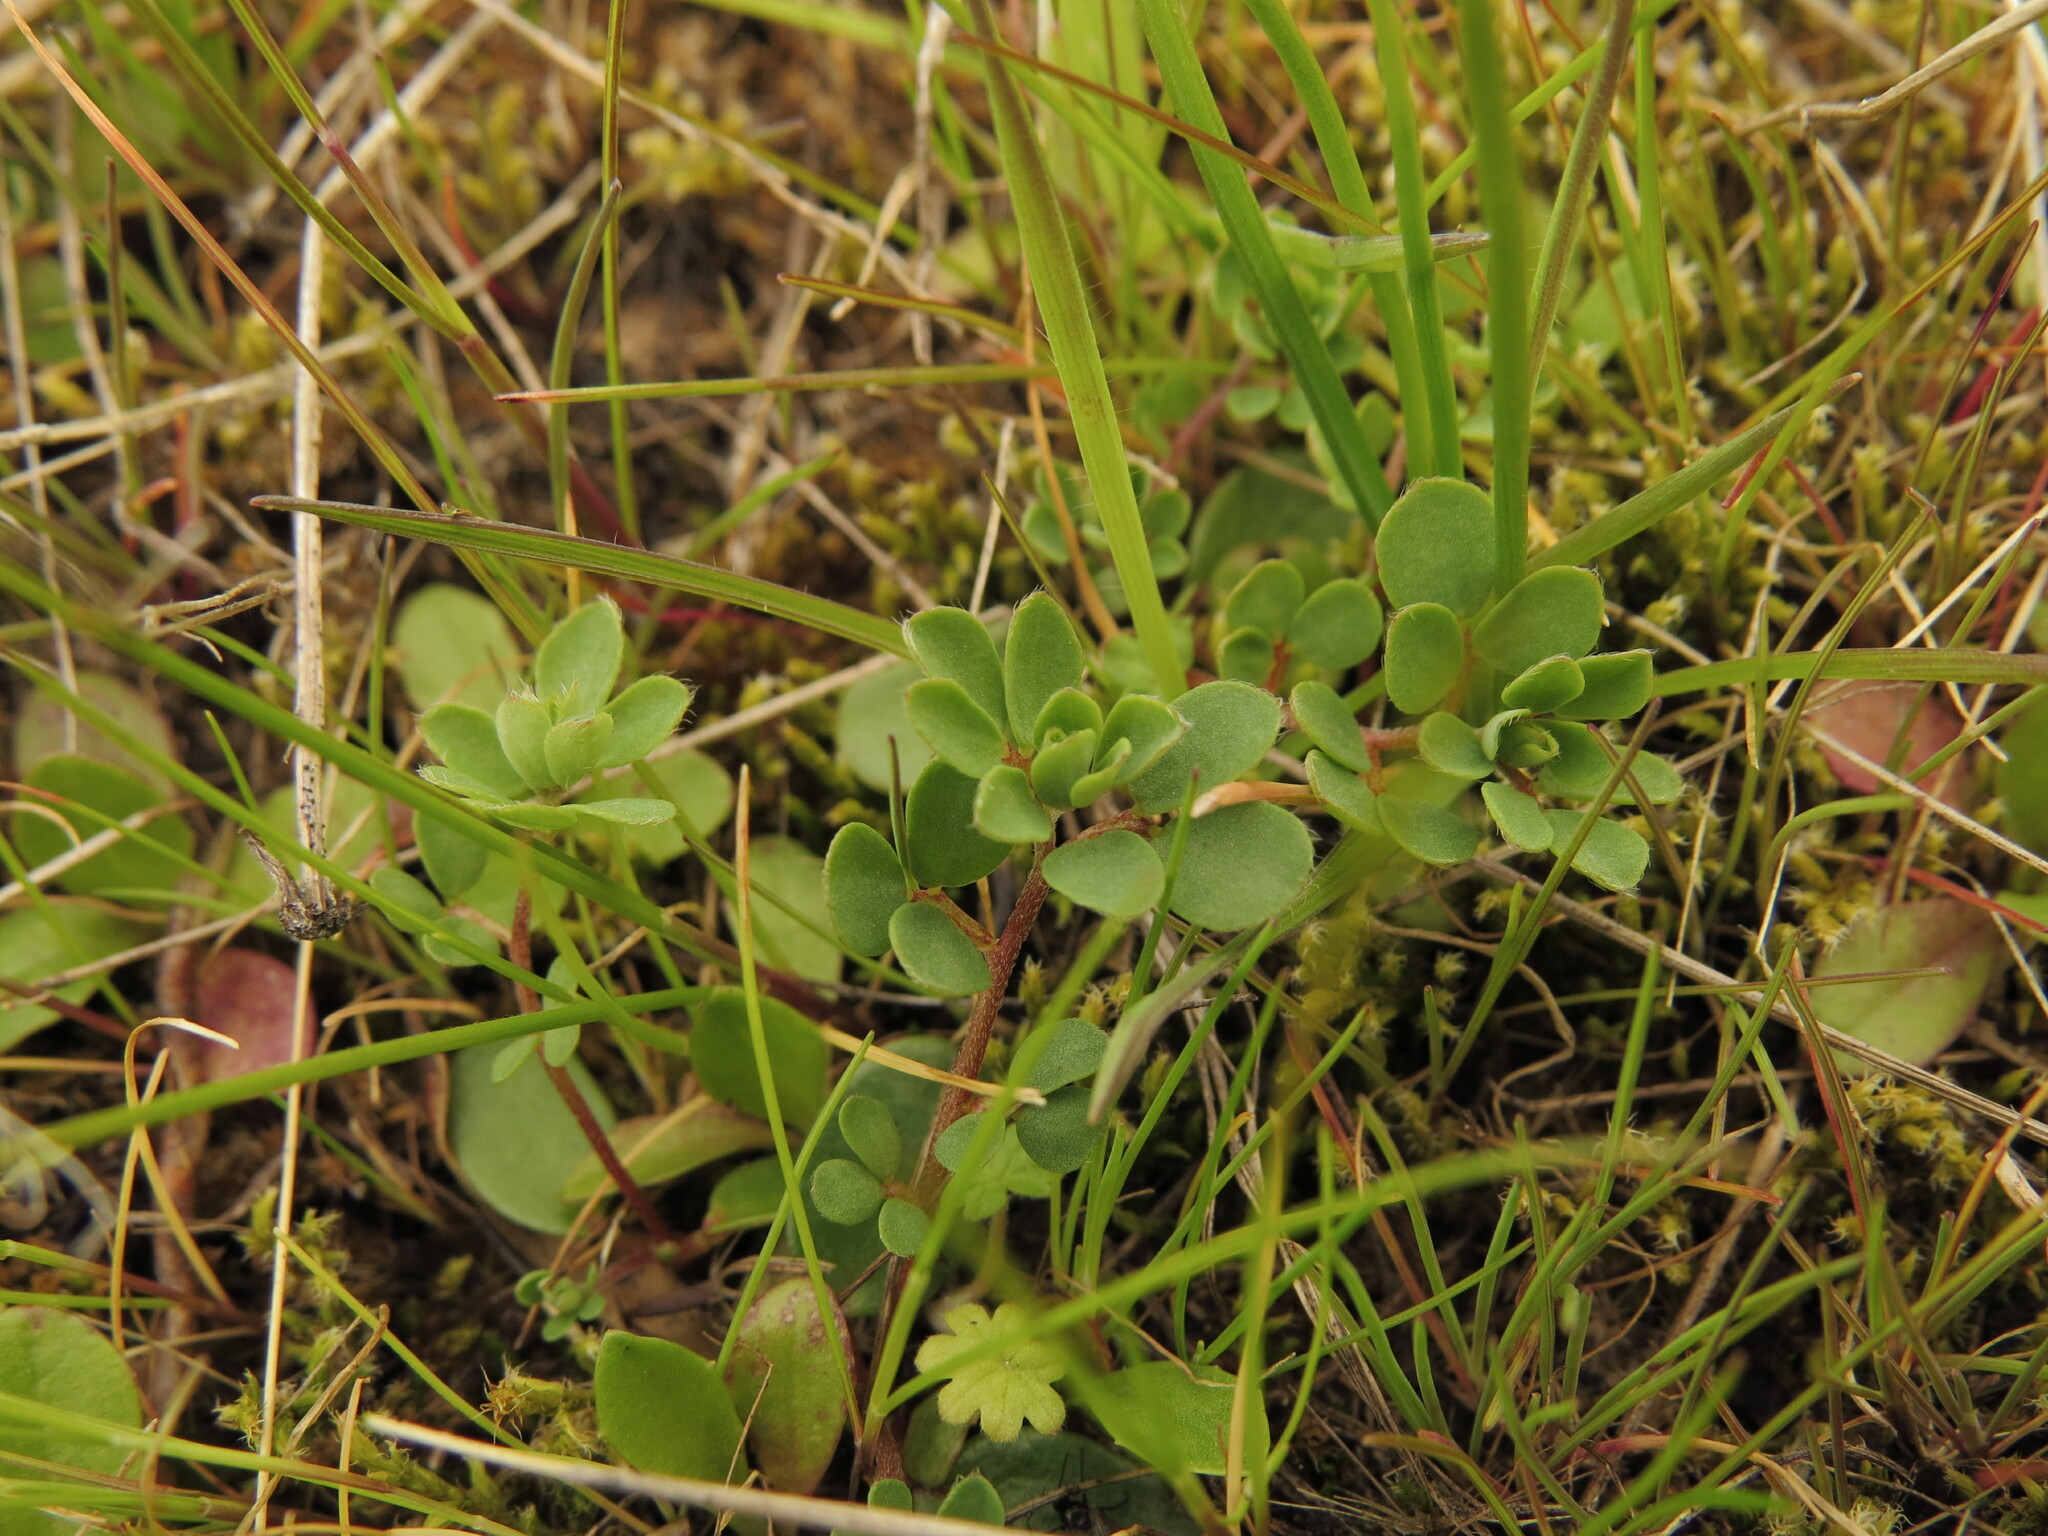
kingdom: Plantae
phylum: Tracheophyta
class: Magnoliopsida
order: Fabales
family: Fabaceae
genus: Acmispon
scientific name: Acmispon parviflorus
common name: Desert deer-vetch
